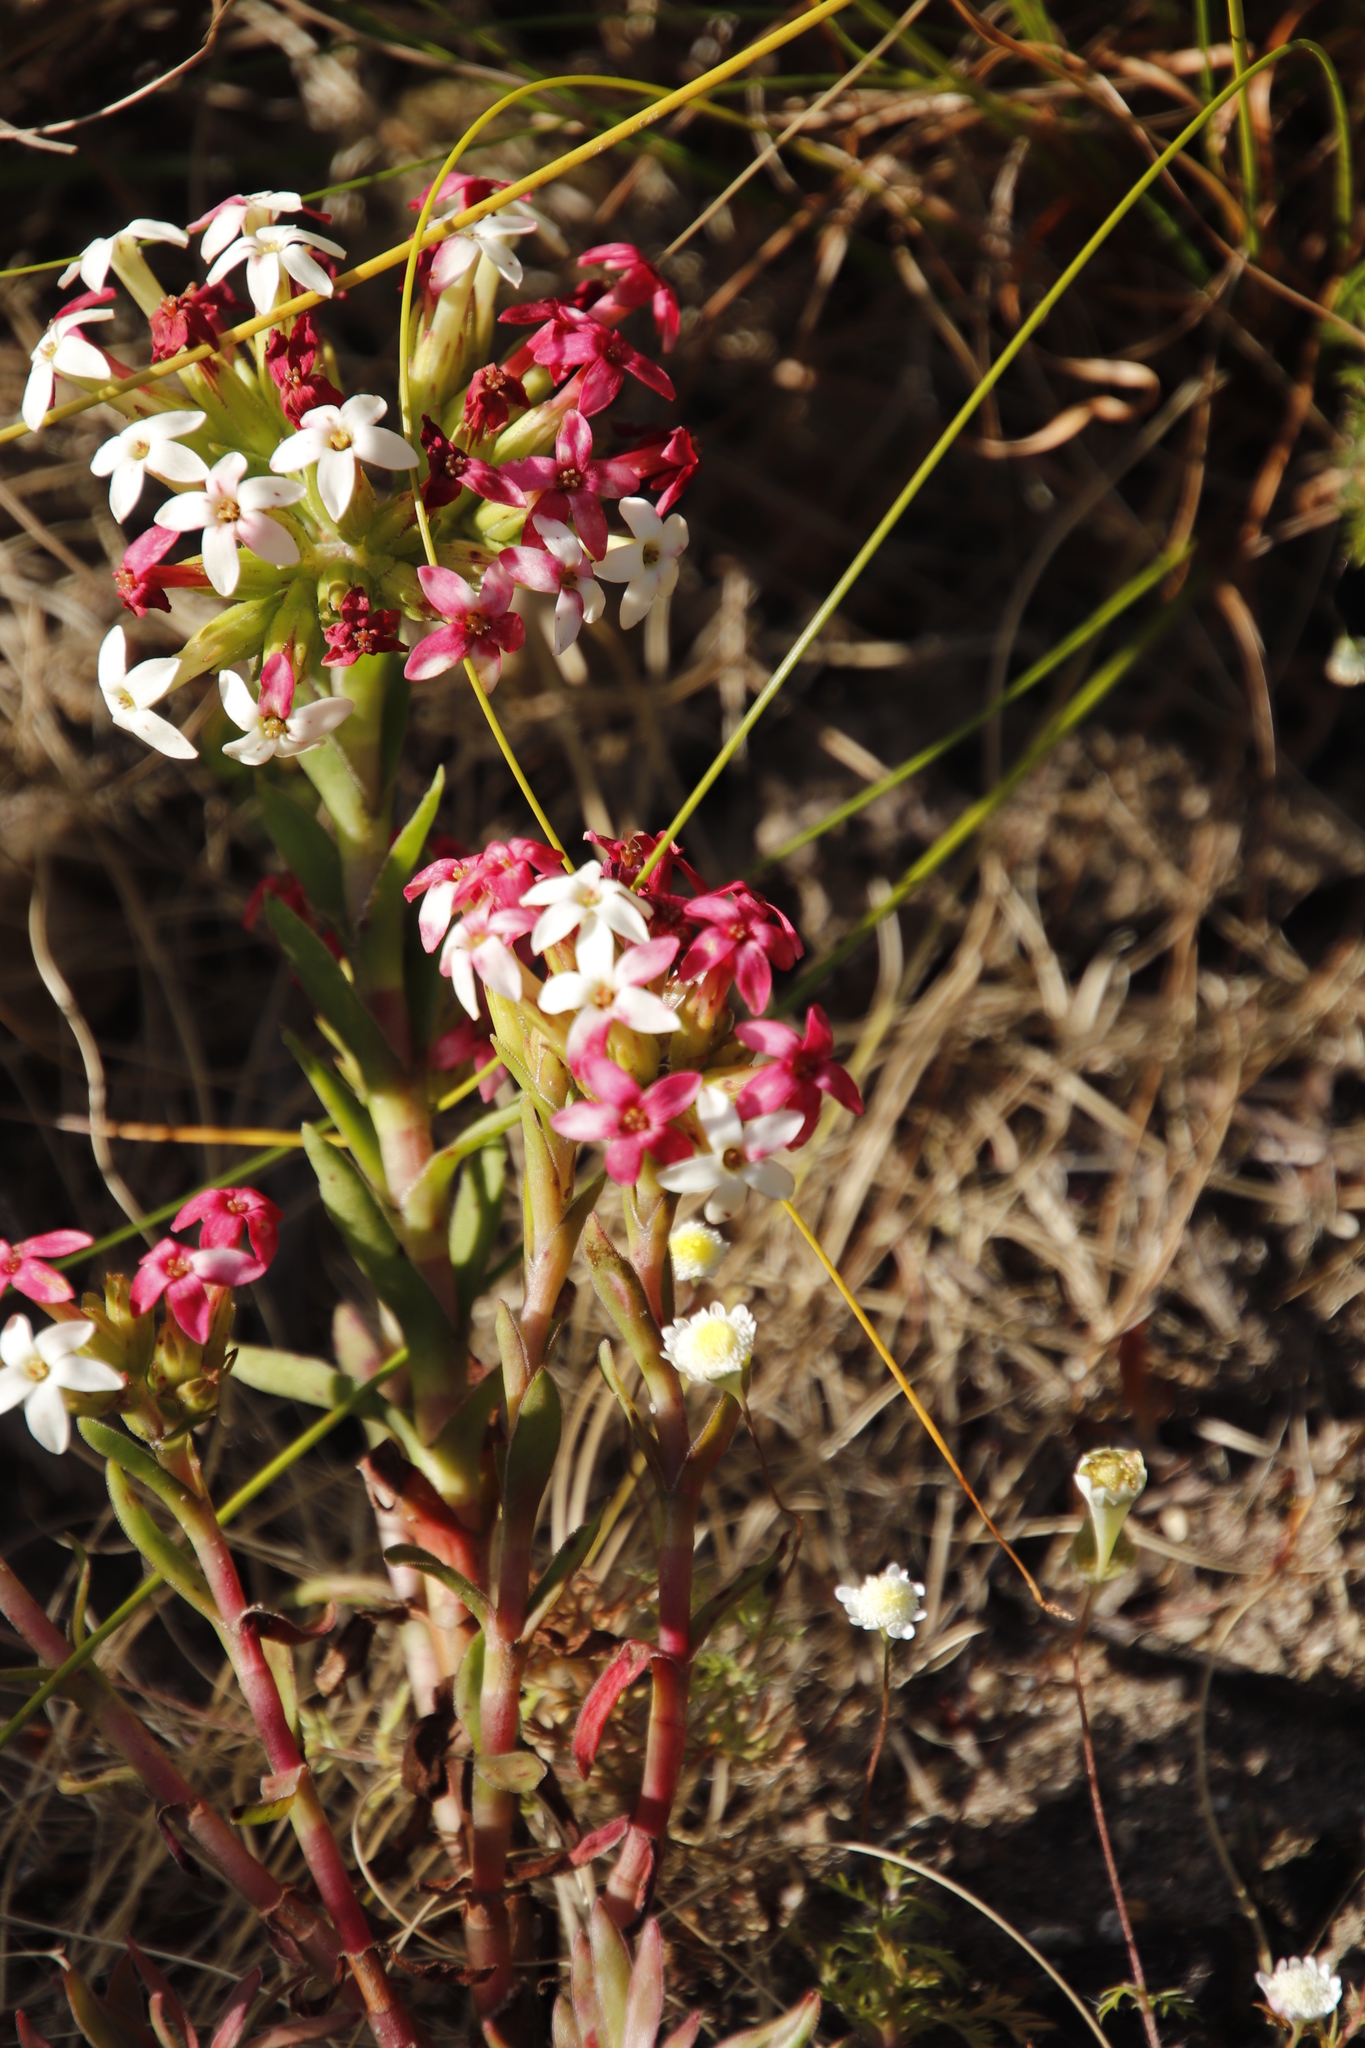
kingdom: Plantae
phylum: Tracheophyta
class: Magnoliopsida
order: Saxifragales
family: Crassulaceae
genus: Crassula
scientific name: Crassula fascicularis
